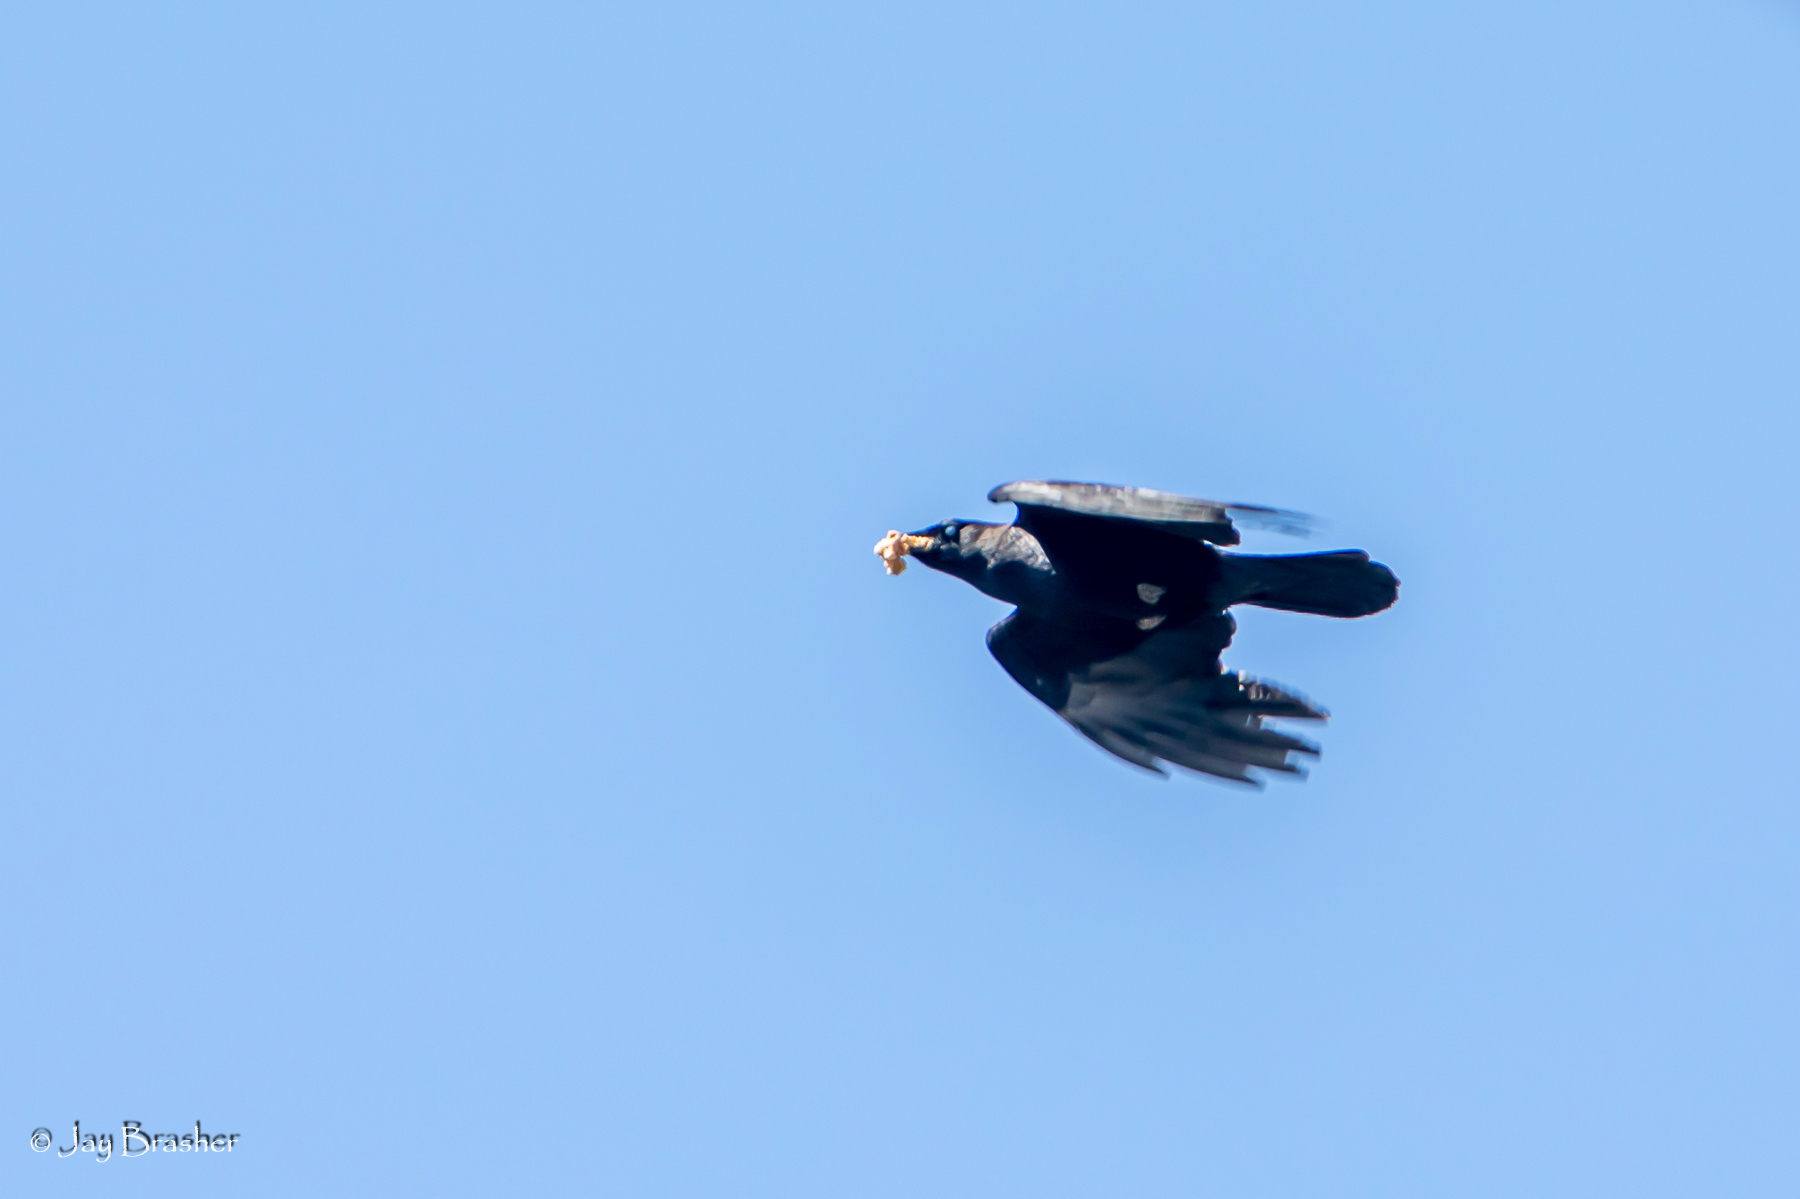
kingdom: Animalia
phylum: Chordata
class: Aves
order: Passeriformes
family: Corvidae
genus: Corvus
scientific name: Corvus brachyrhynchos
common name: American crow
